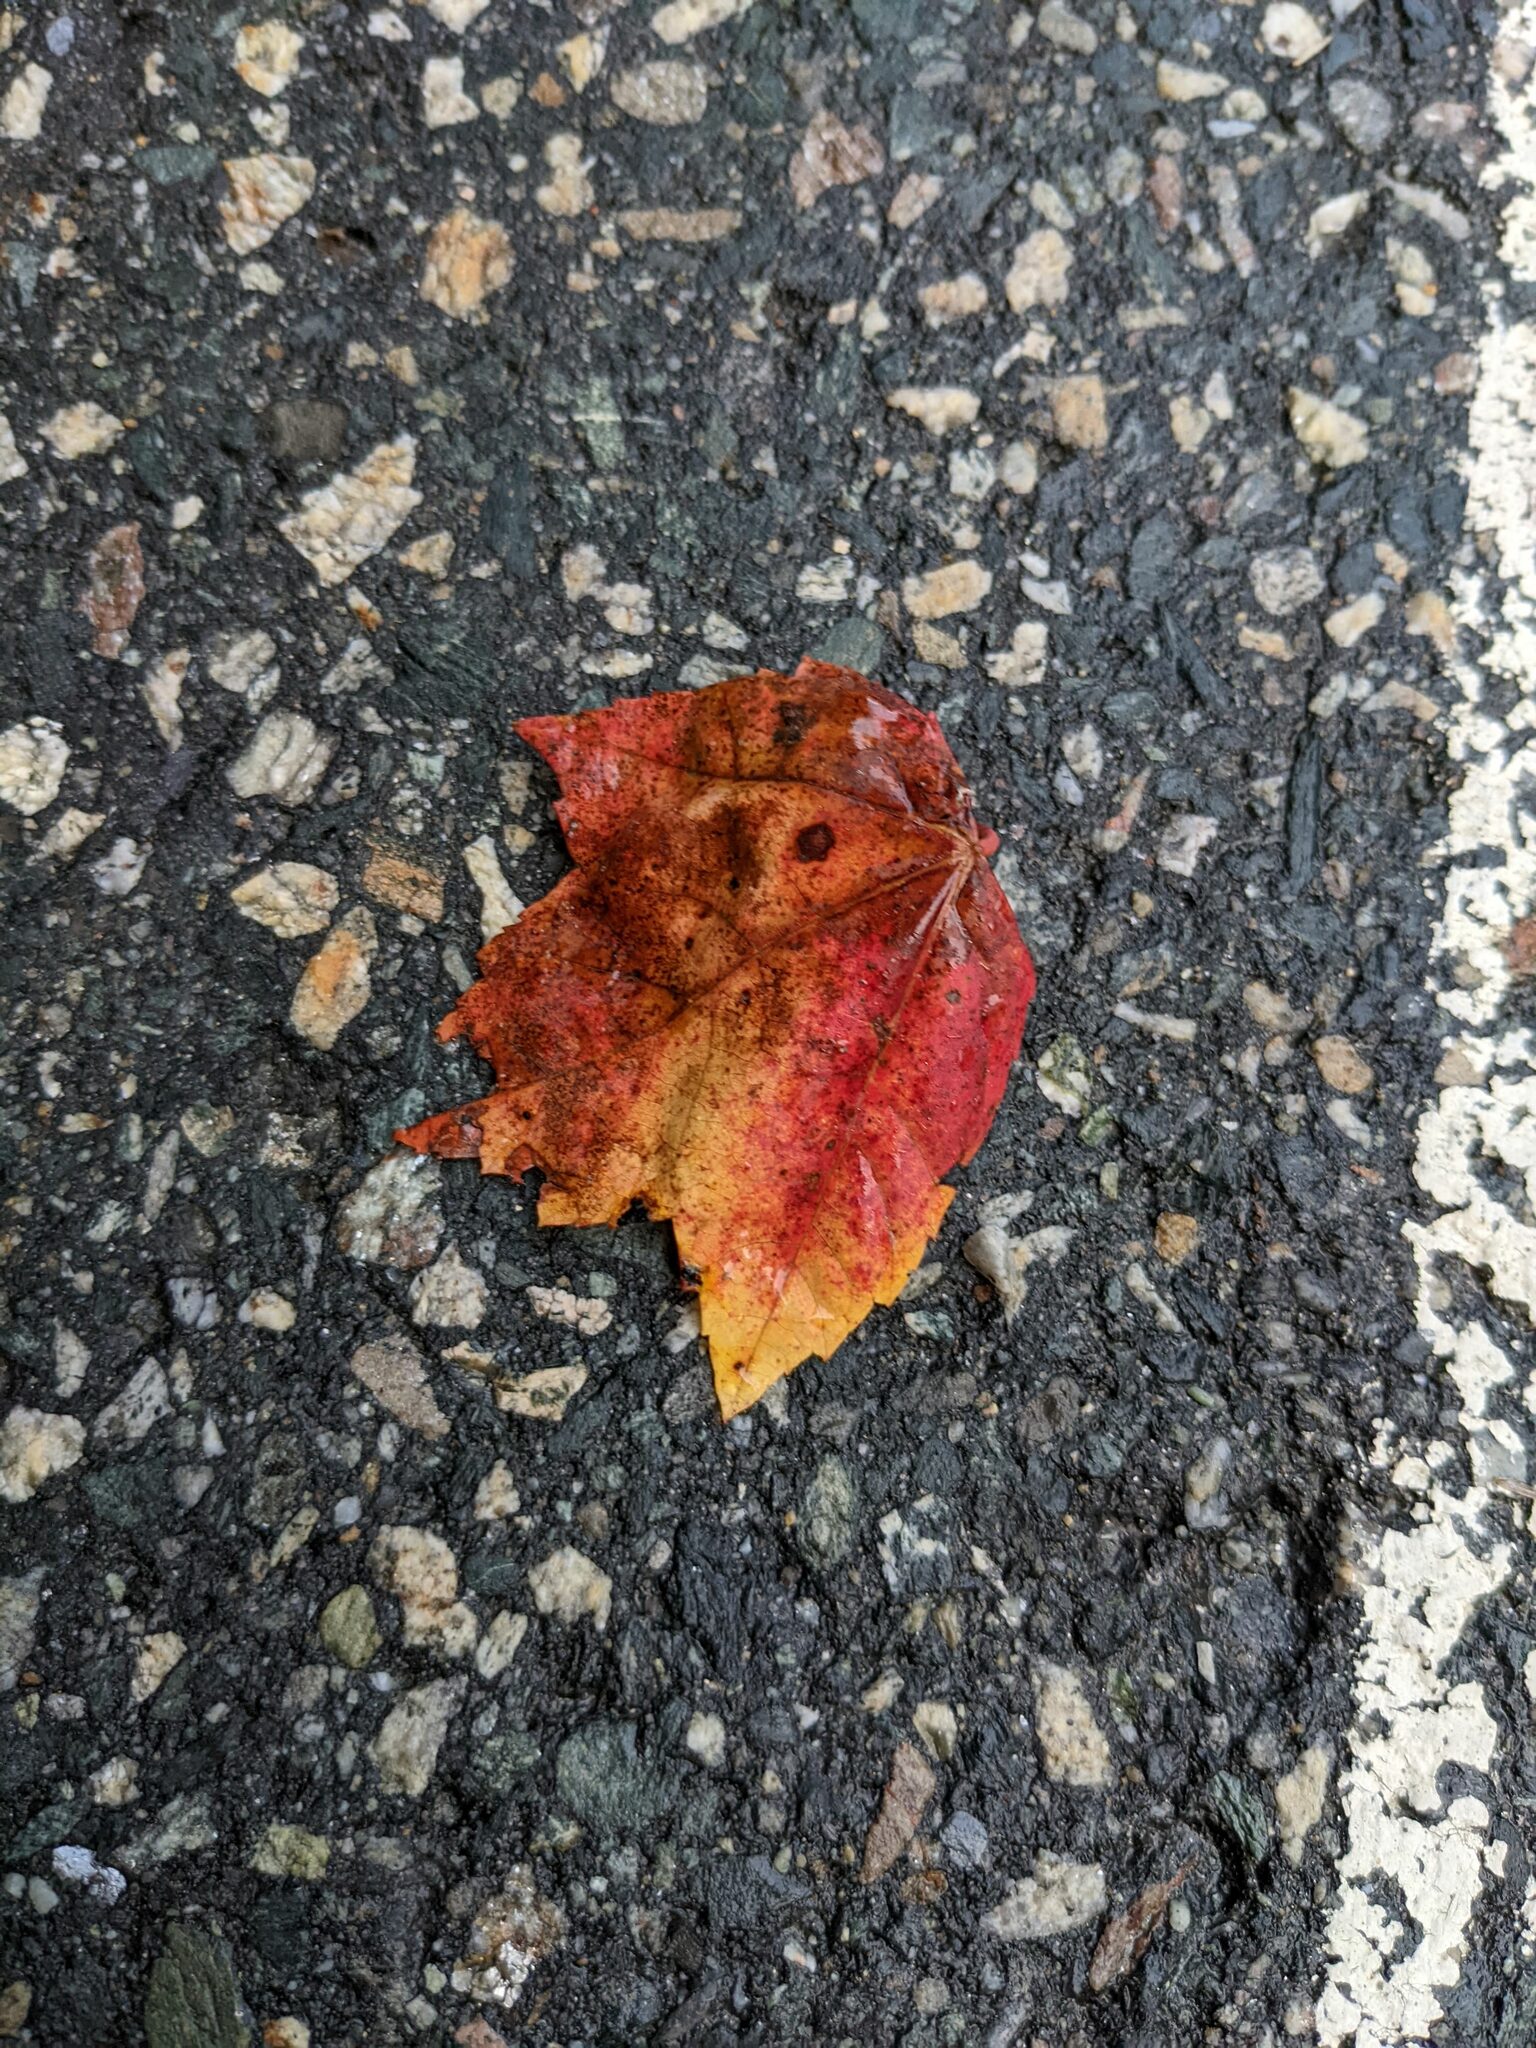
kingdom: Plantae
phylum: Tracheophyta
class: Magnoliopsida
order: Sapindales
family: Sapindaceae
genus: Acer
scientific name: Acer rubrum
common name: Red maple
